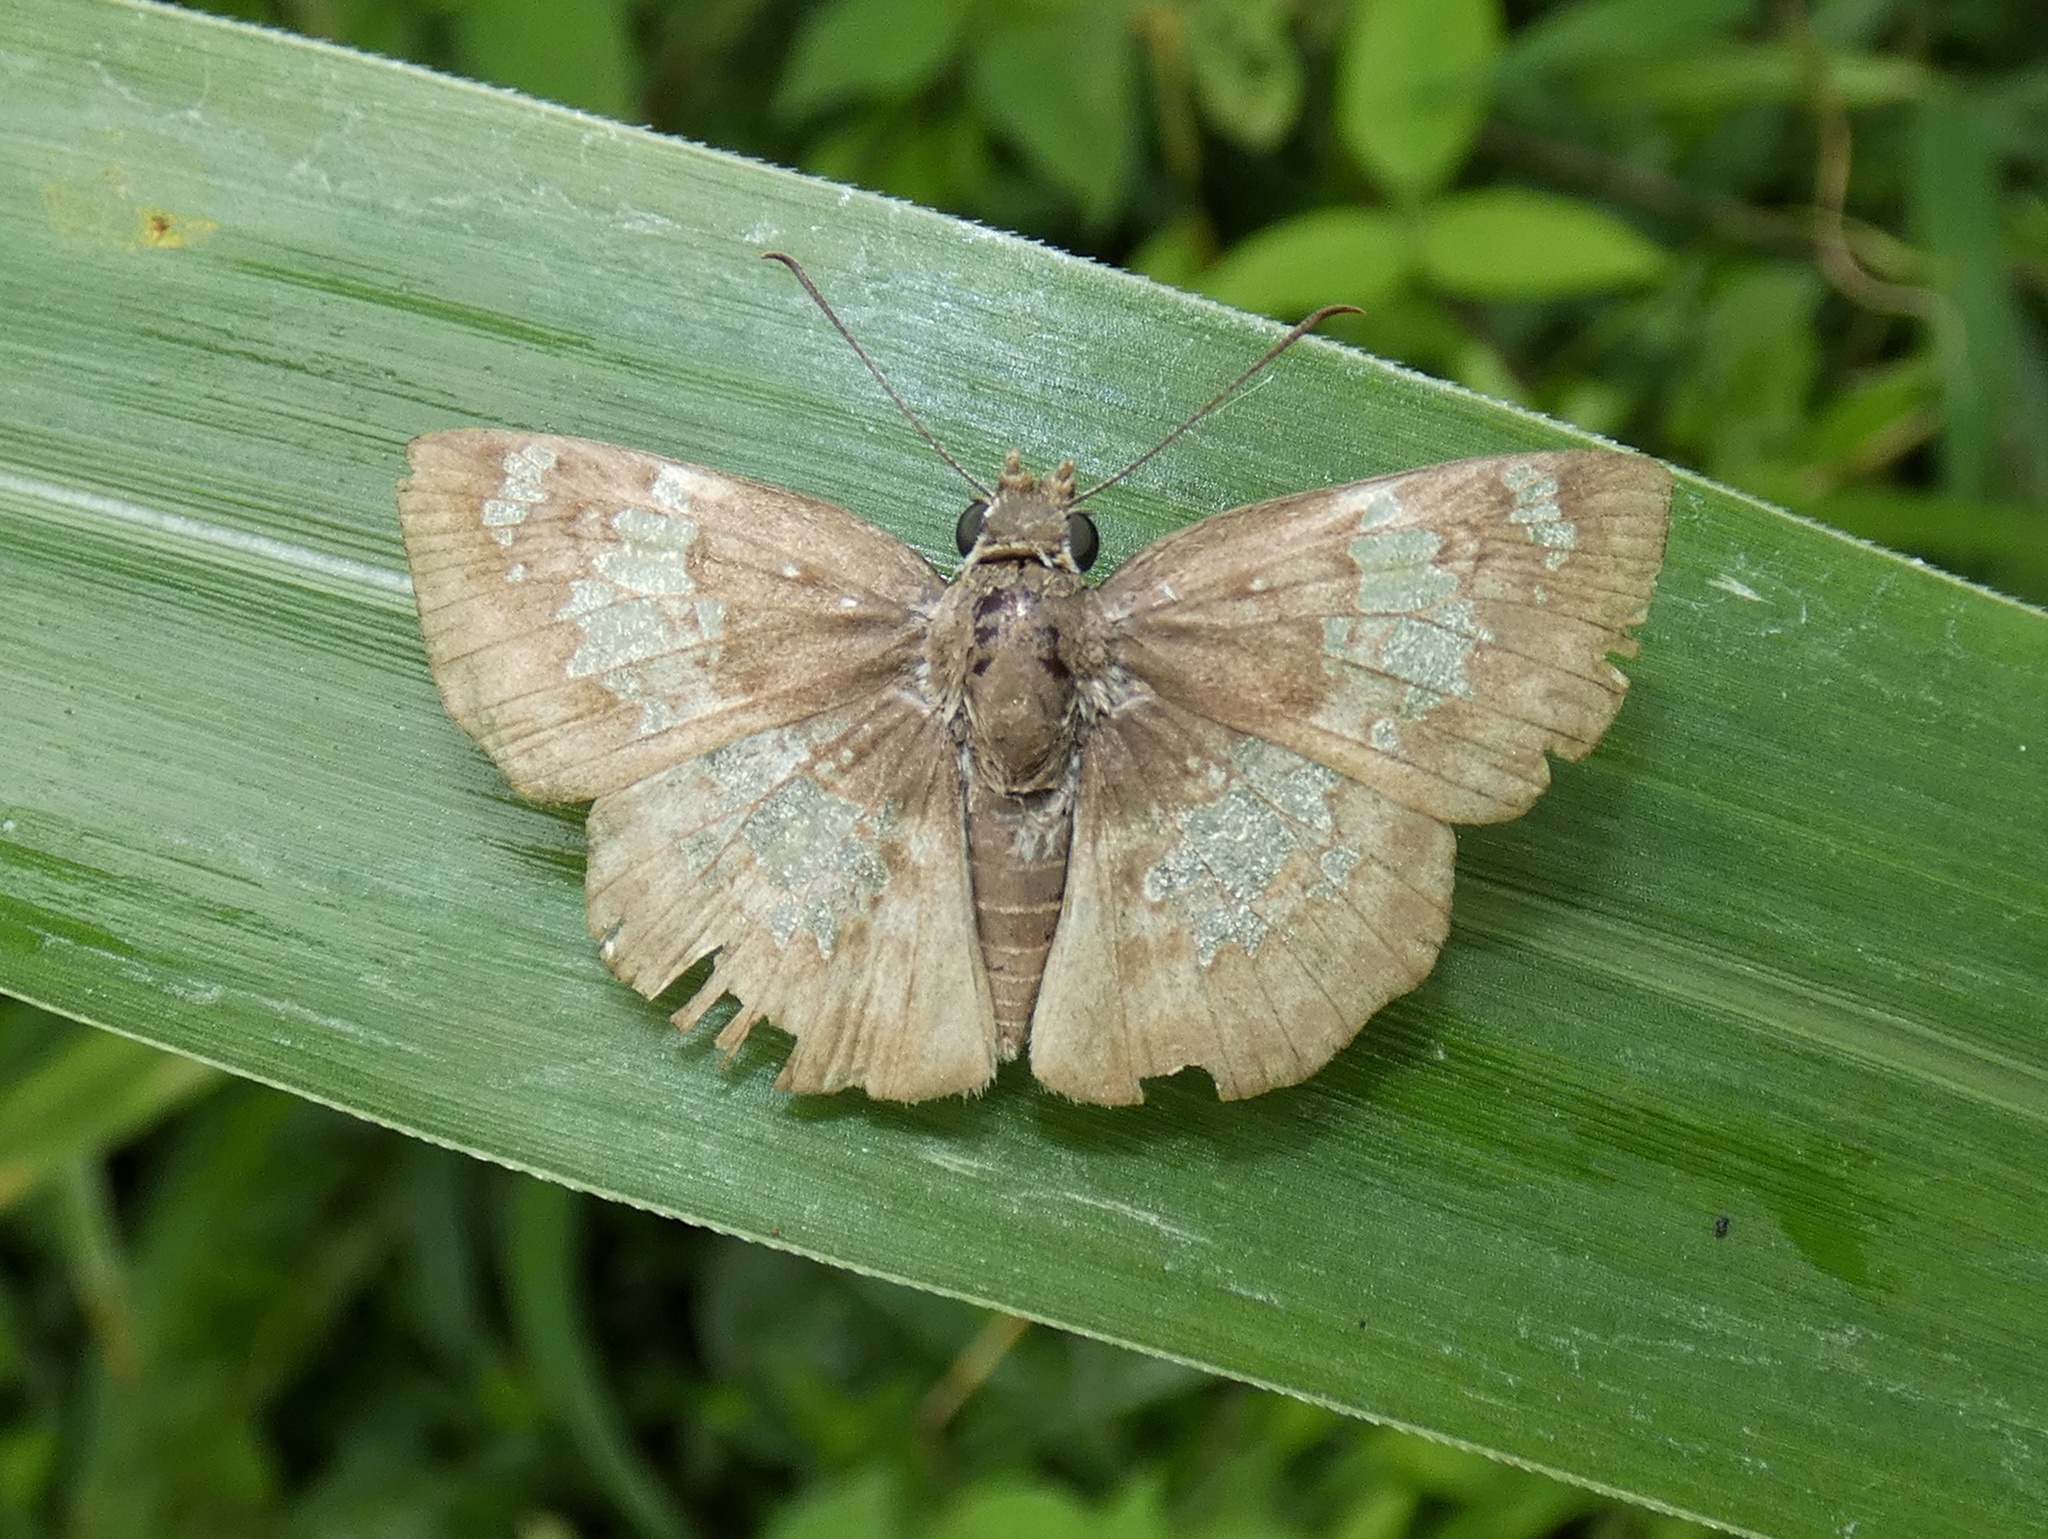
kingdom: Animalia
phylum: Arthropoda
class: Insecta
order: Lepidoptera
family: Hesperiidae
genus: Xenophanes
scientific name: Xenophanes tryxus
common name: Glassy-winged skipper
